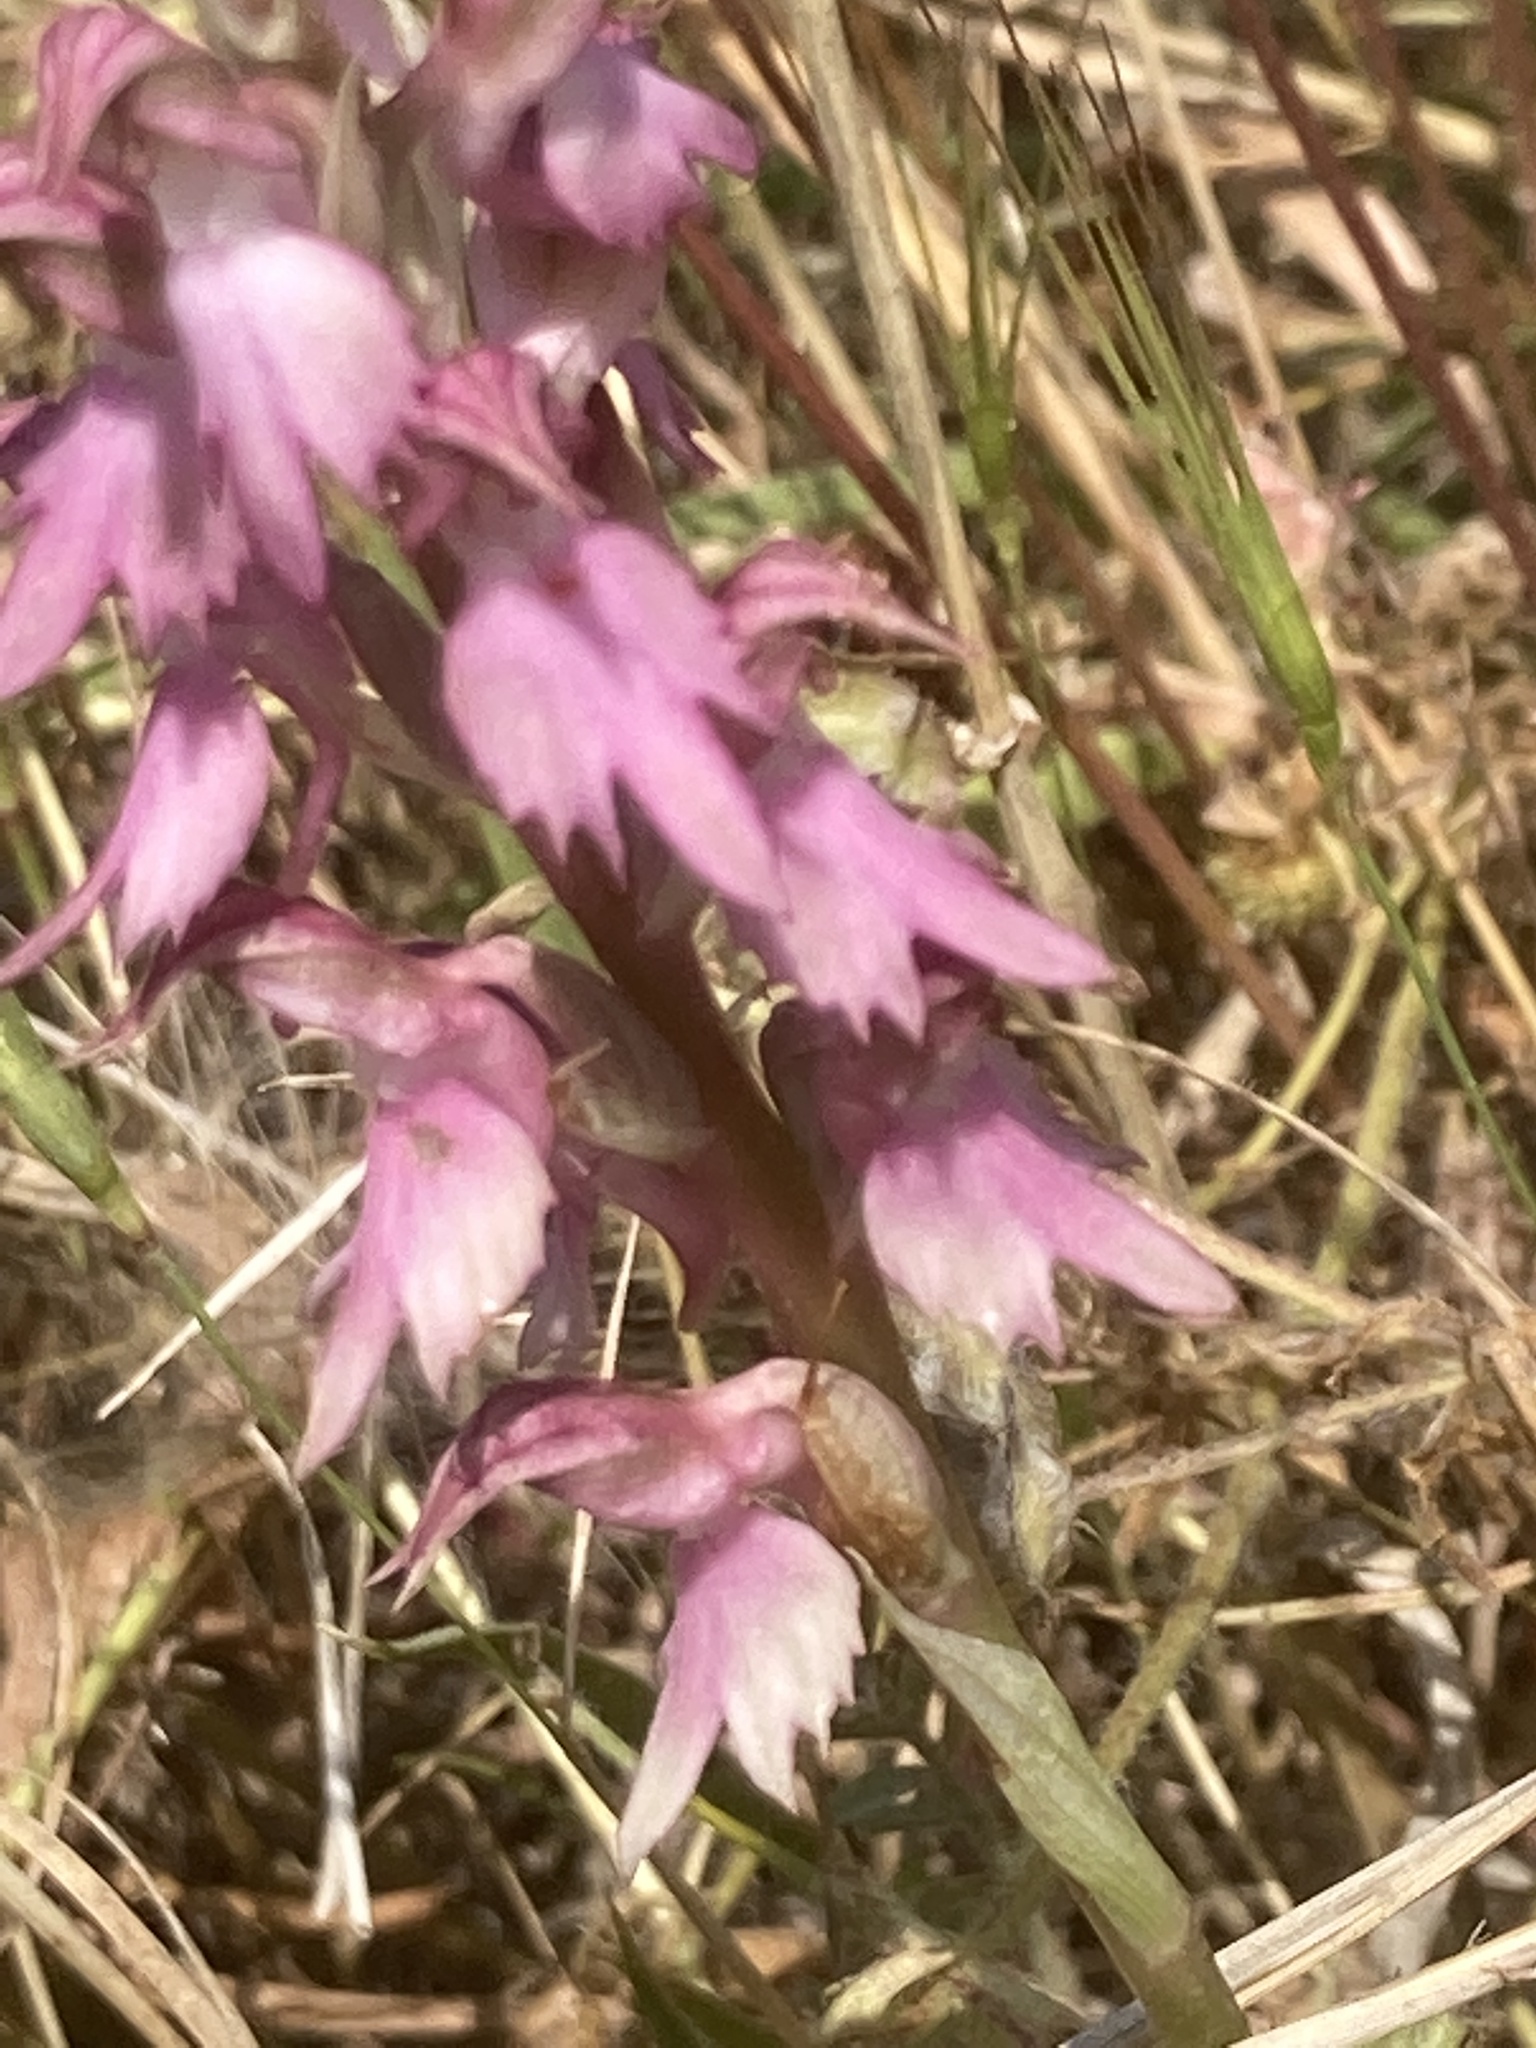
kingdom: Plantae
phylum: Tracheophyta
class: Liliopsida
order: Asparagales
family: Orchidaceae
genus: Anacamptis
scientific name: Anacamptis sancta
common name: Holy orchid
